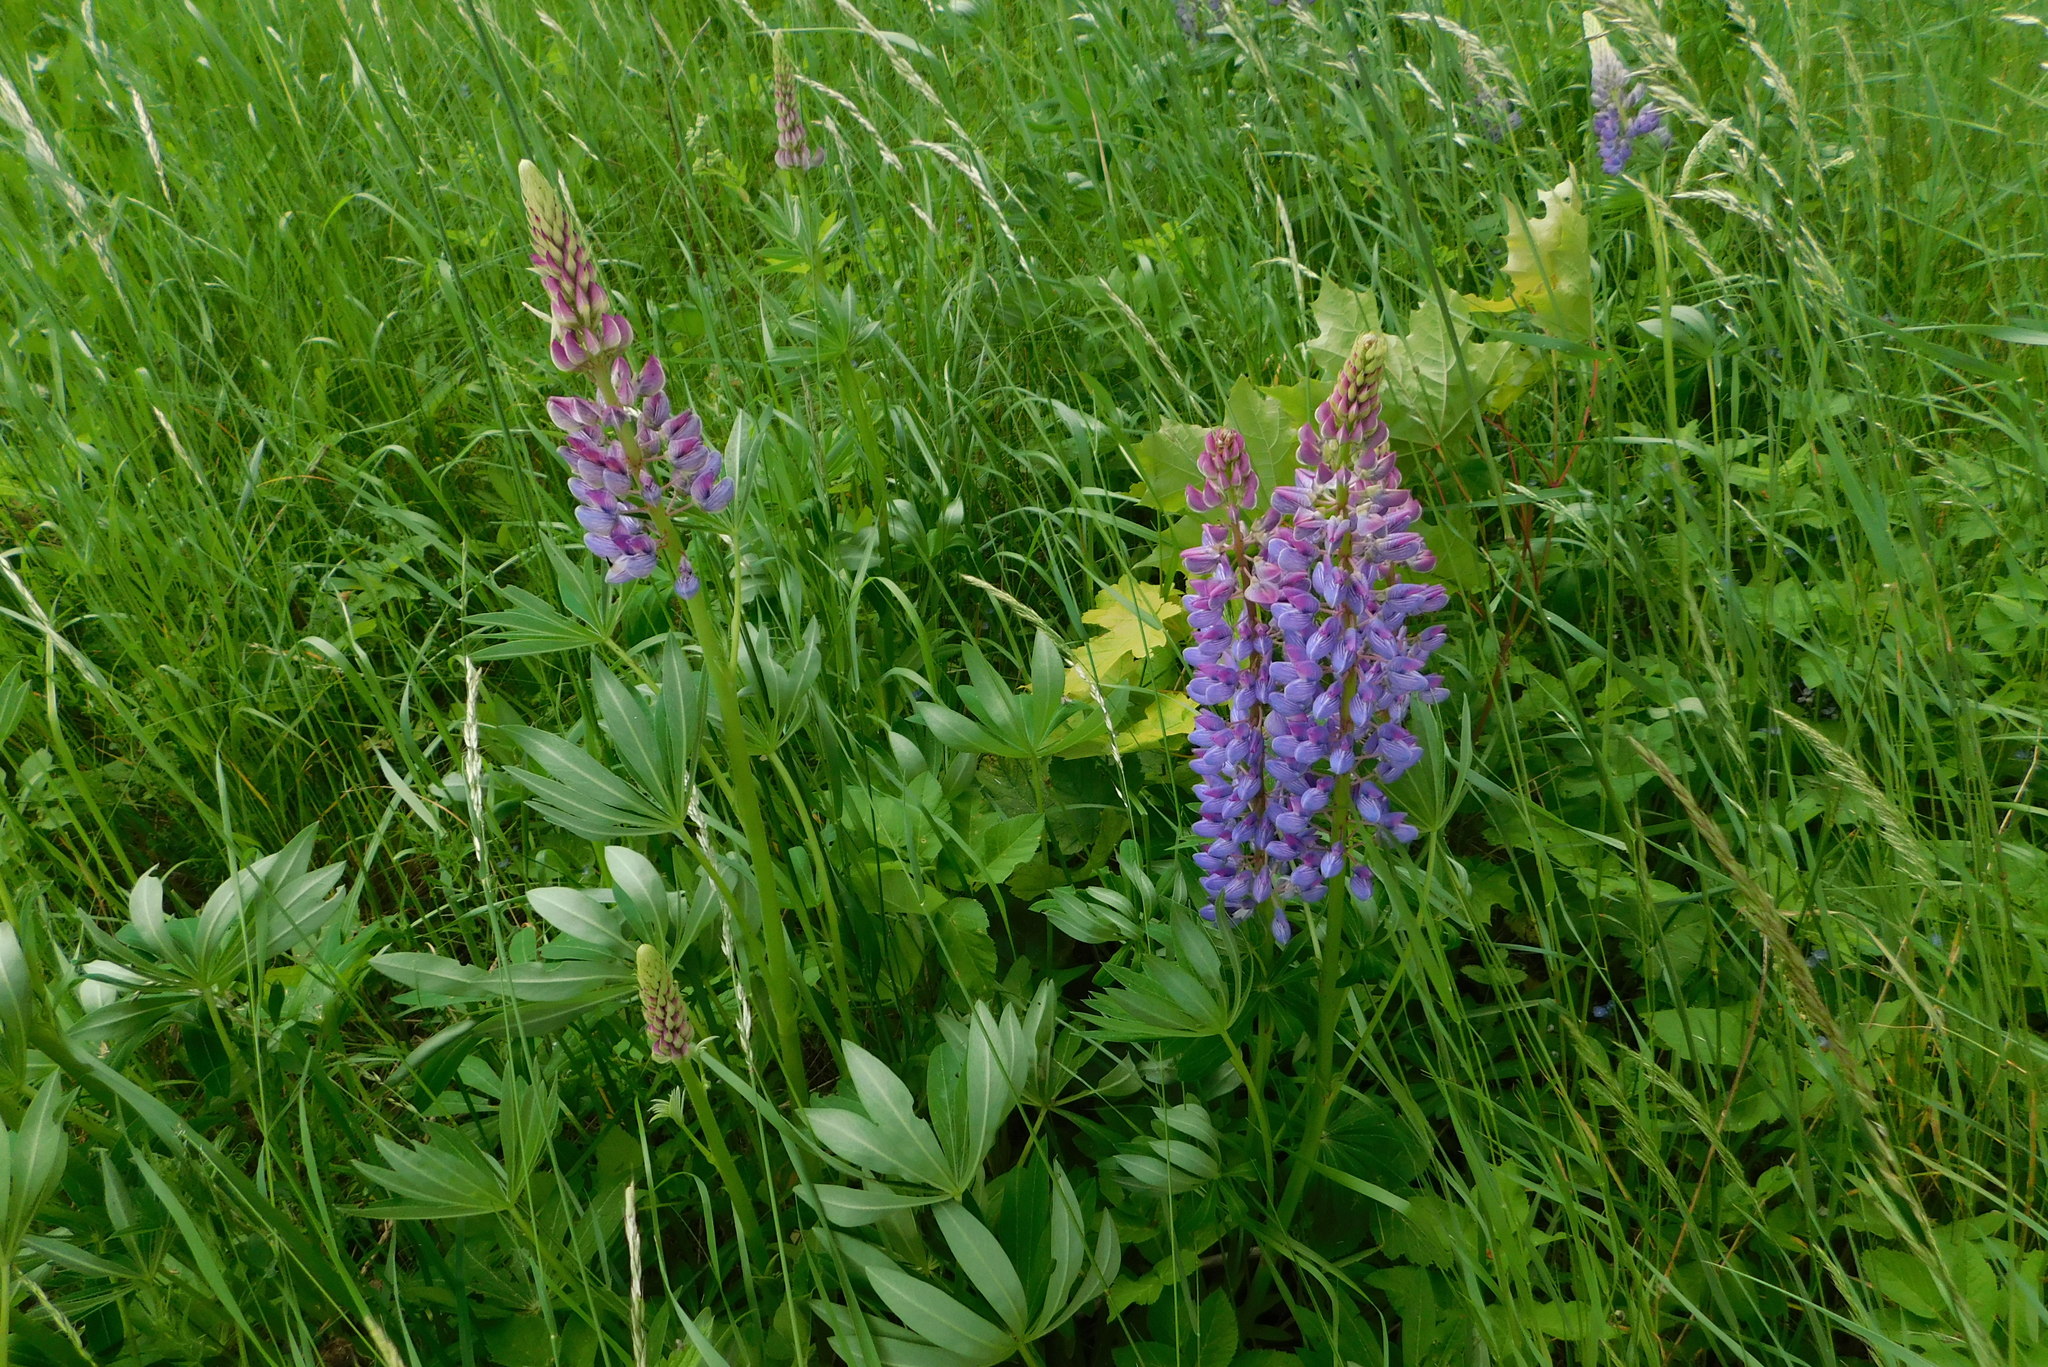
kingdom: Plantae
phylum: Tracheophyta
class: Magnoliopsida
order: Fabales
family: Fabaceae
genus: Lupinus
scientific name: Lupinus polyphyllus
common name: Garden lupin
